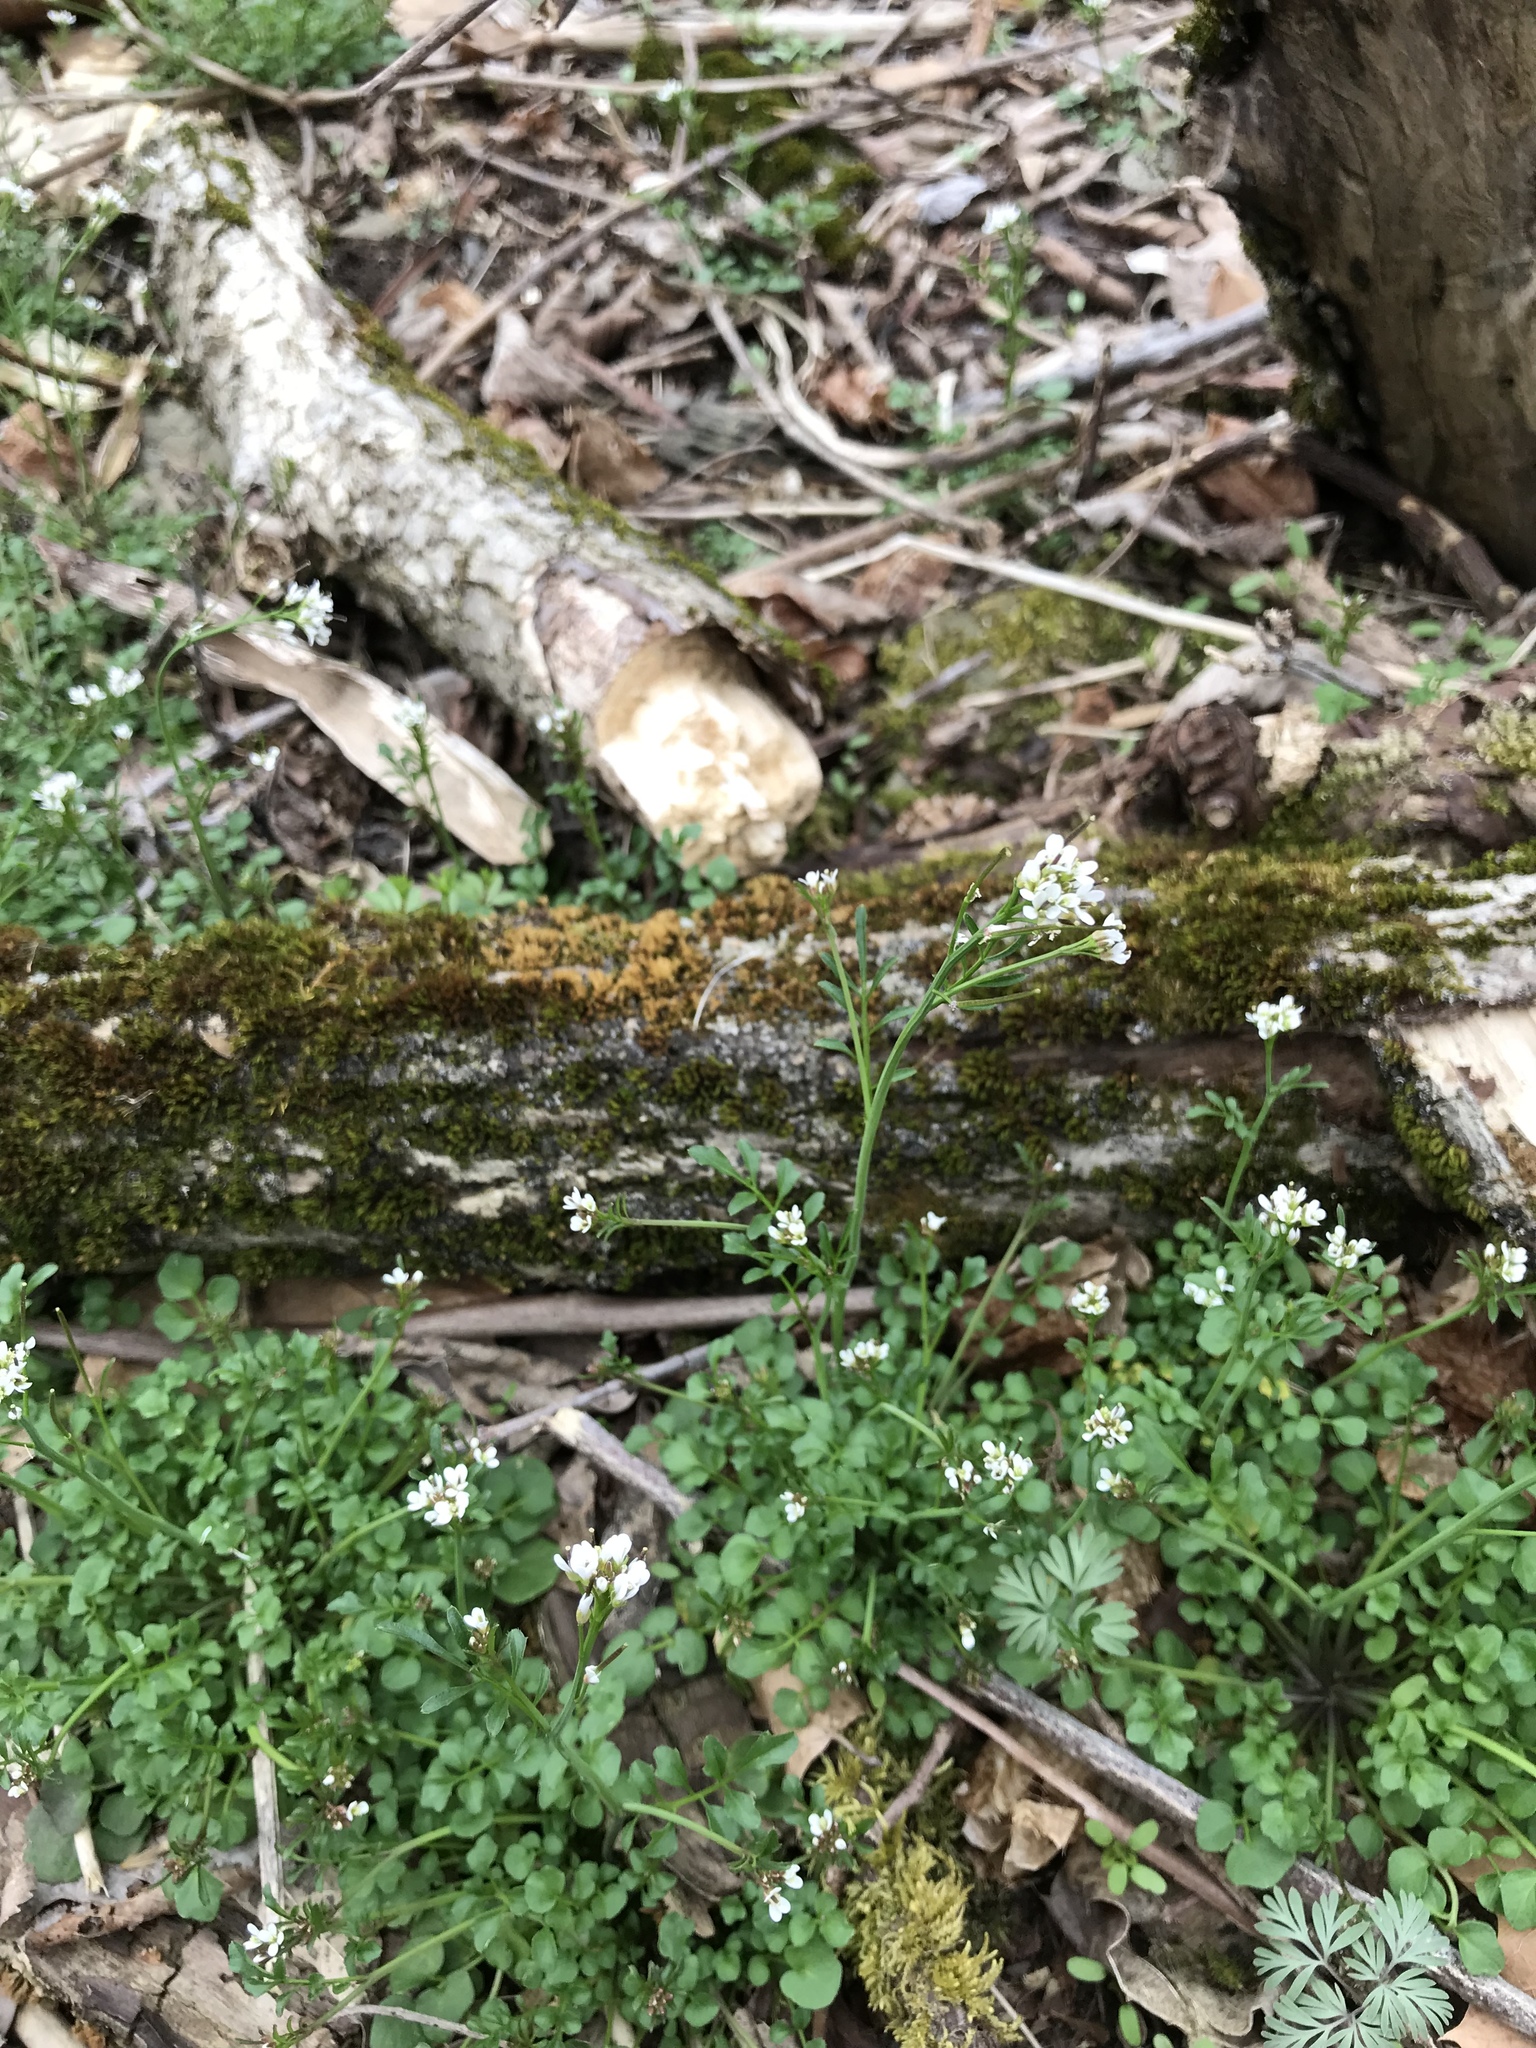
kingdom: Plantae
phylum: Tracheophyta
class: Magnoliopsida
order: Brassicales
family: Brassicaceae
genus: Cardamine
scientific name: Cardamine hirsuta
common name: Hairy bittercress
